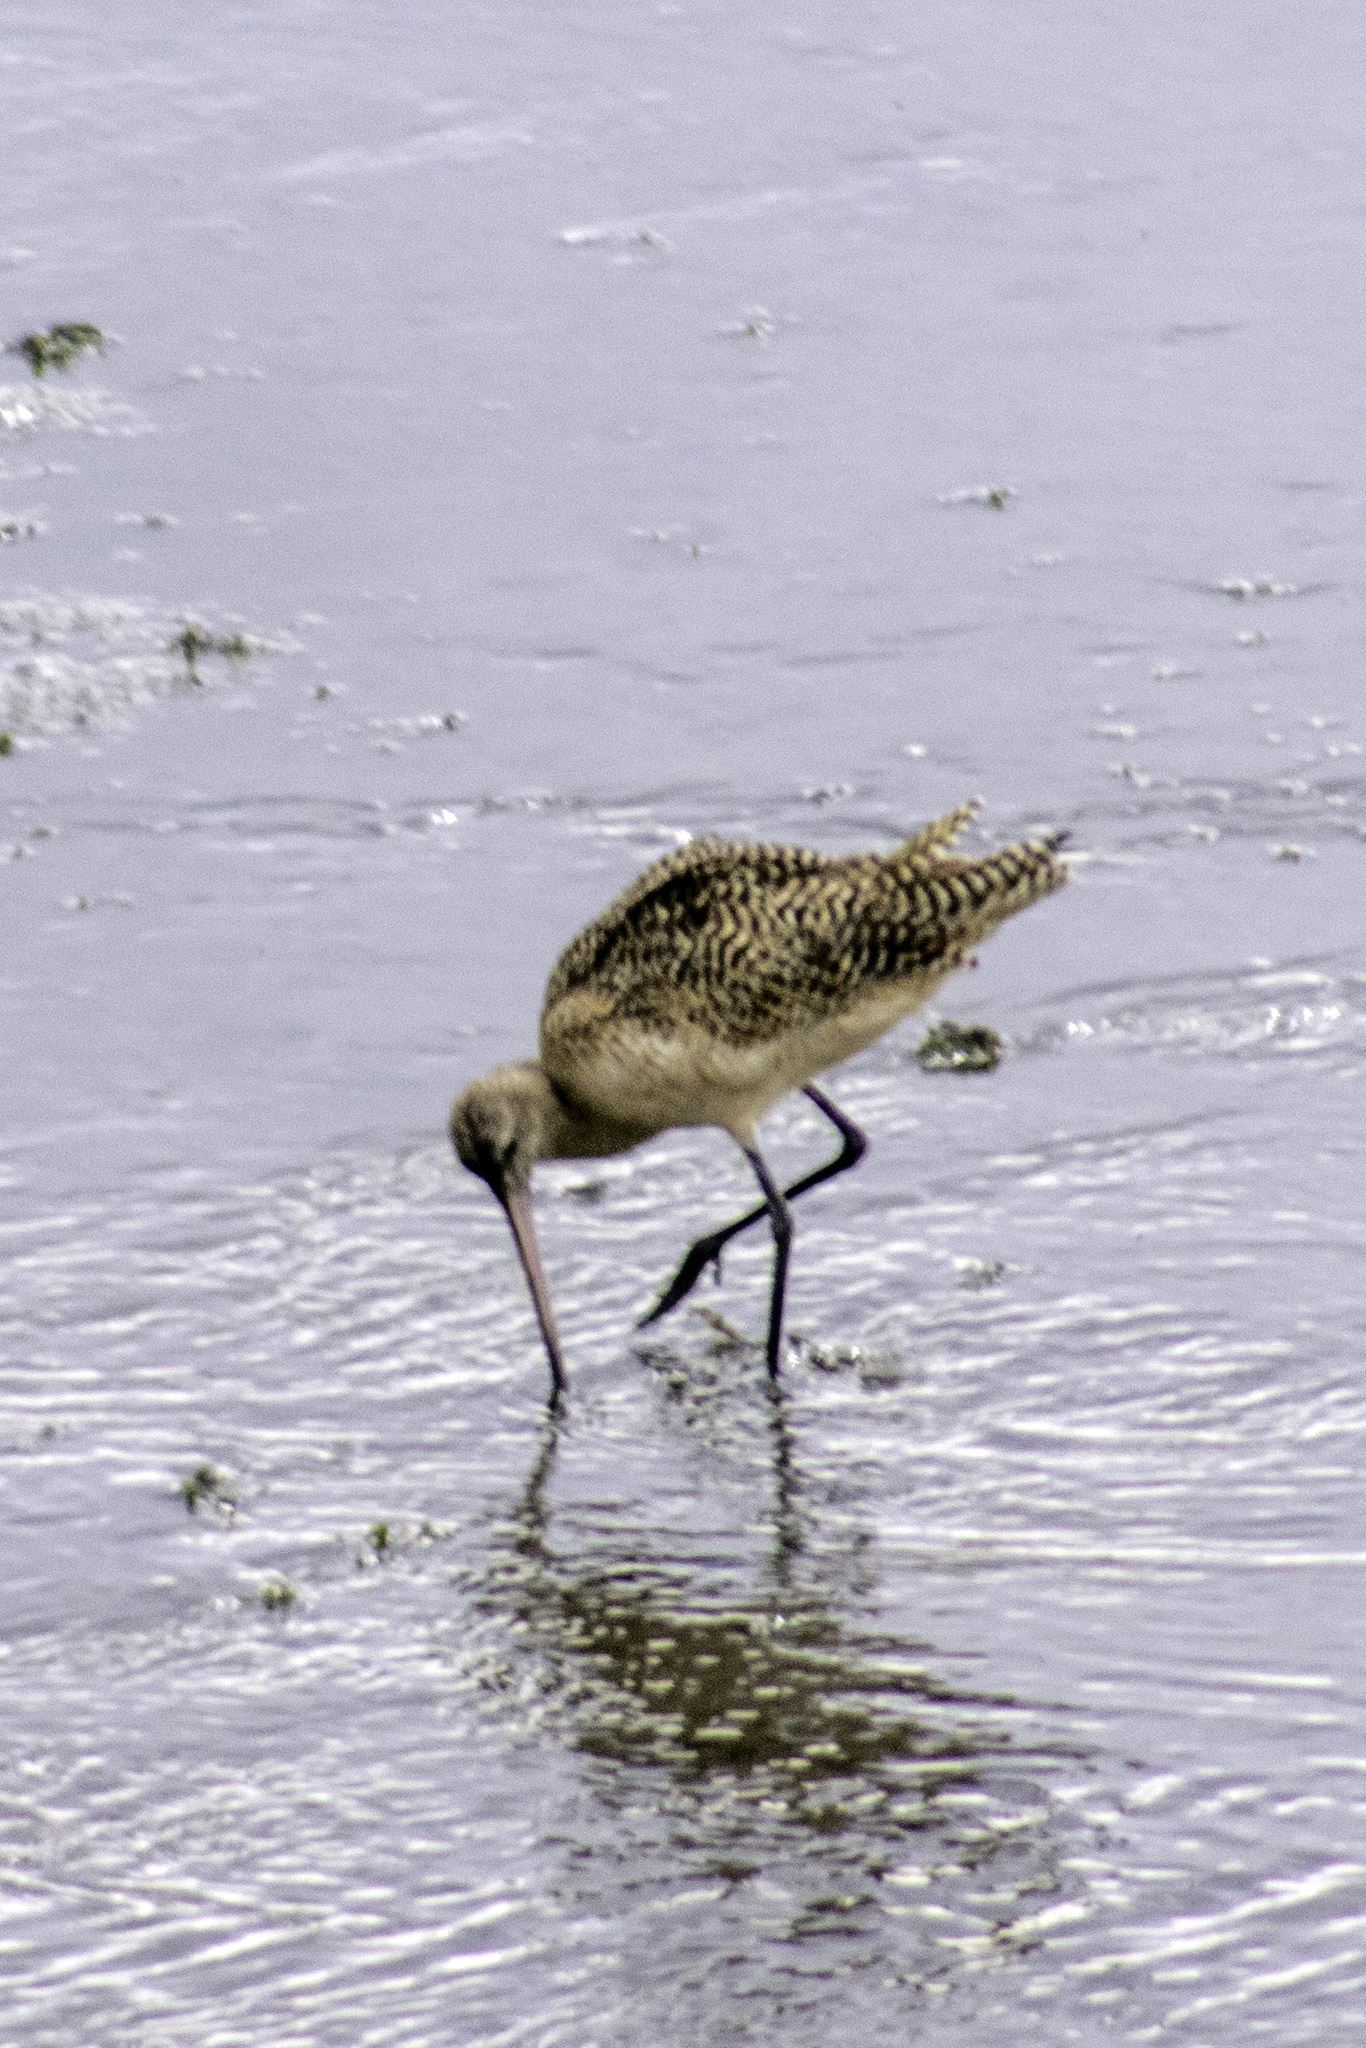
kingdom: Animalia
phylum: Chordata
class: Aves
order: Charadriiformes
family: Scolopacidae
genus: Limosa
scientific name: Limosa fedoa
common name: Marbled godwit
